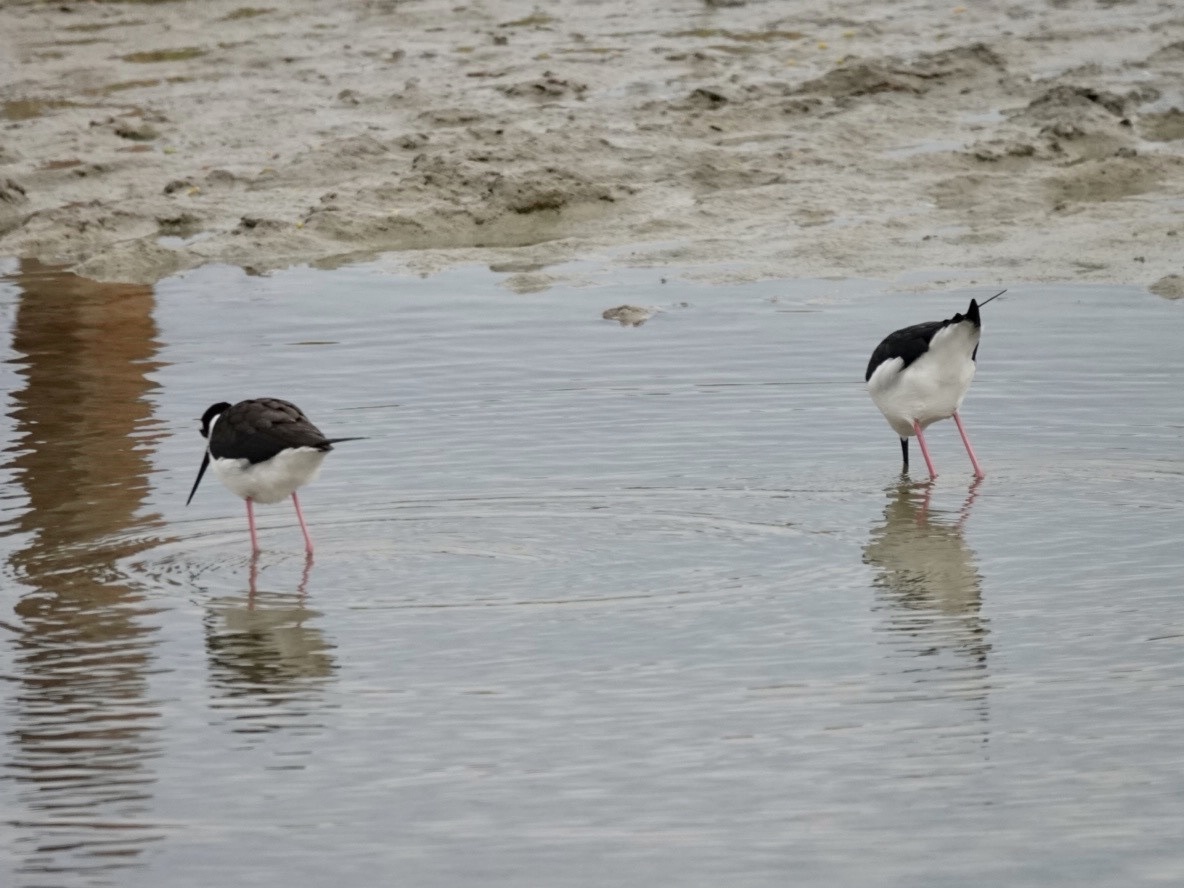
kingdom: Animalia
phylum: Chordata
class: Aves
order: Charadriiformes
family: Recurvirostridae
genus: Himantopus
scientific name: Himantopus mexicanus
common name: Black-necked stilt
